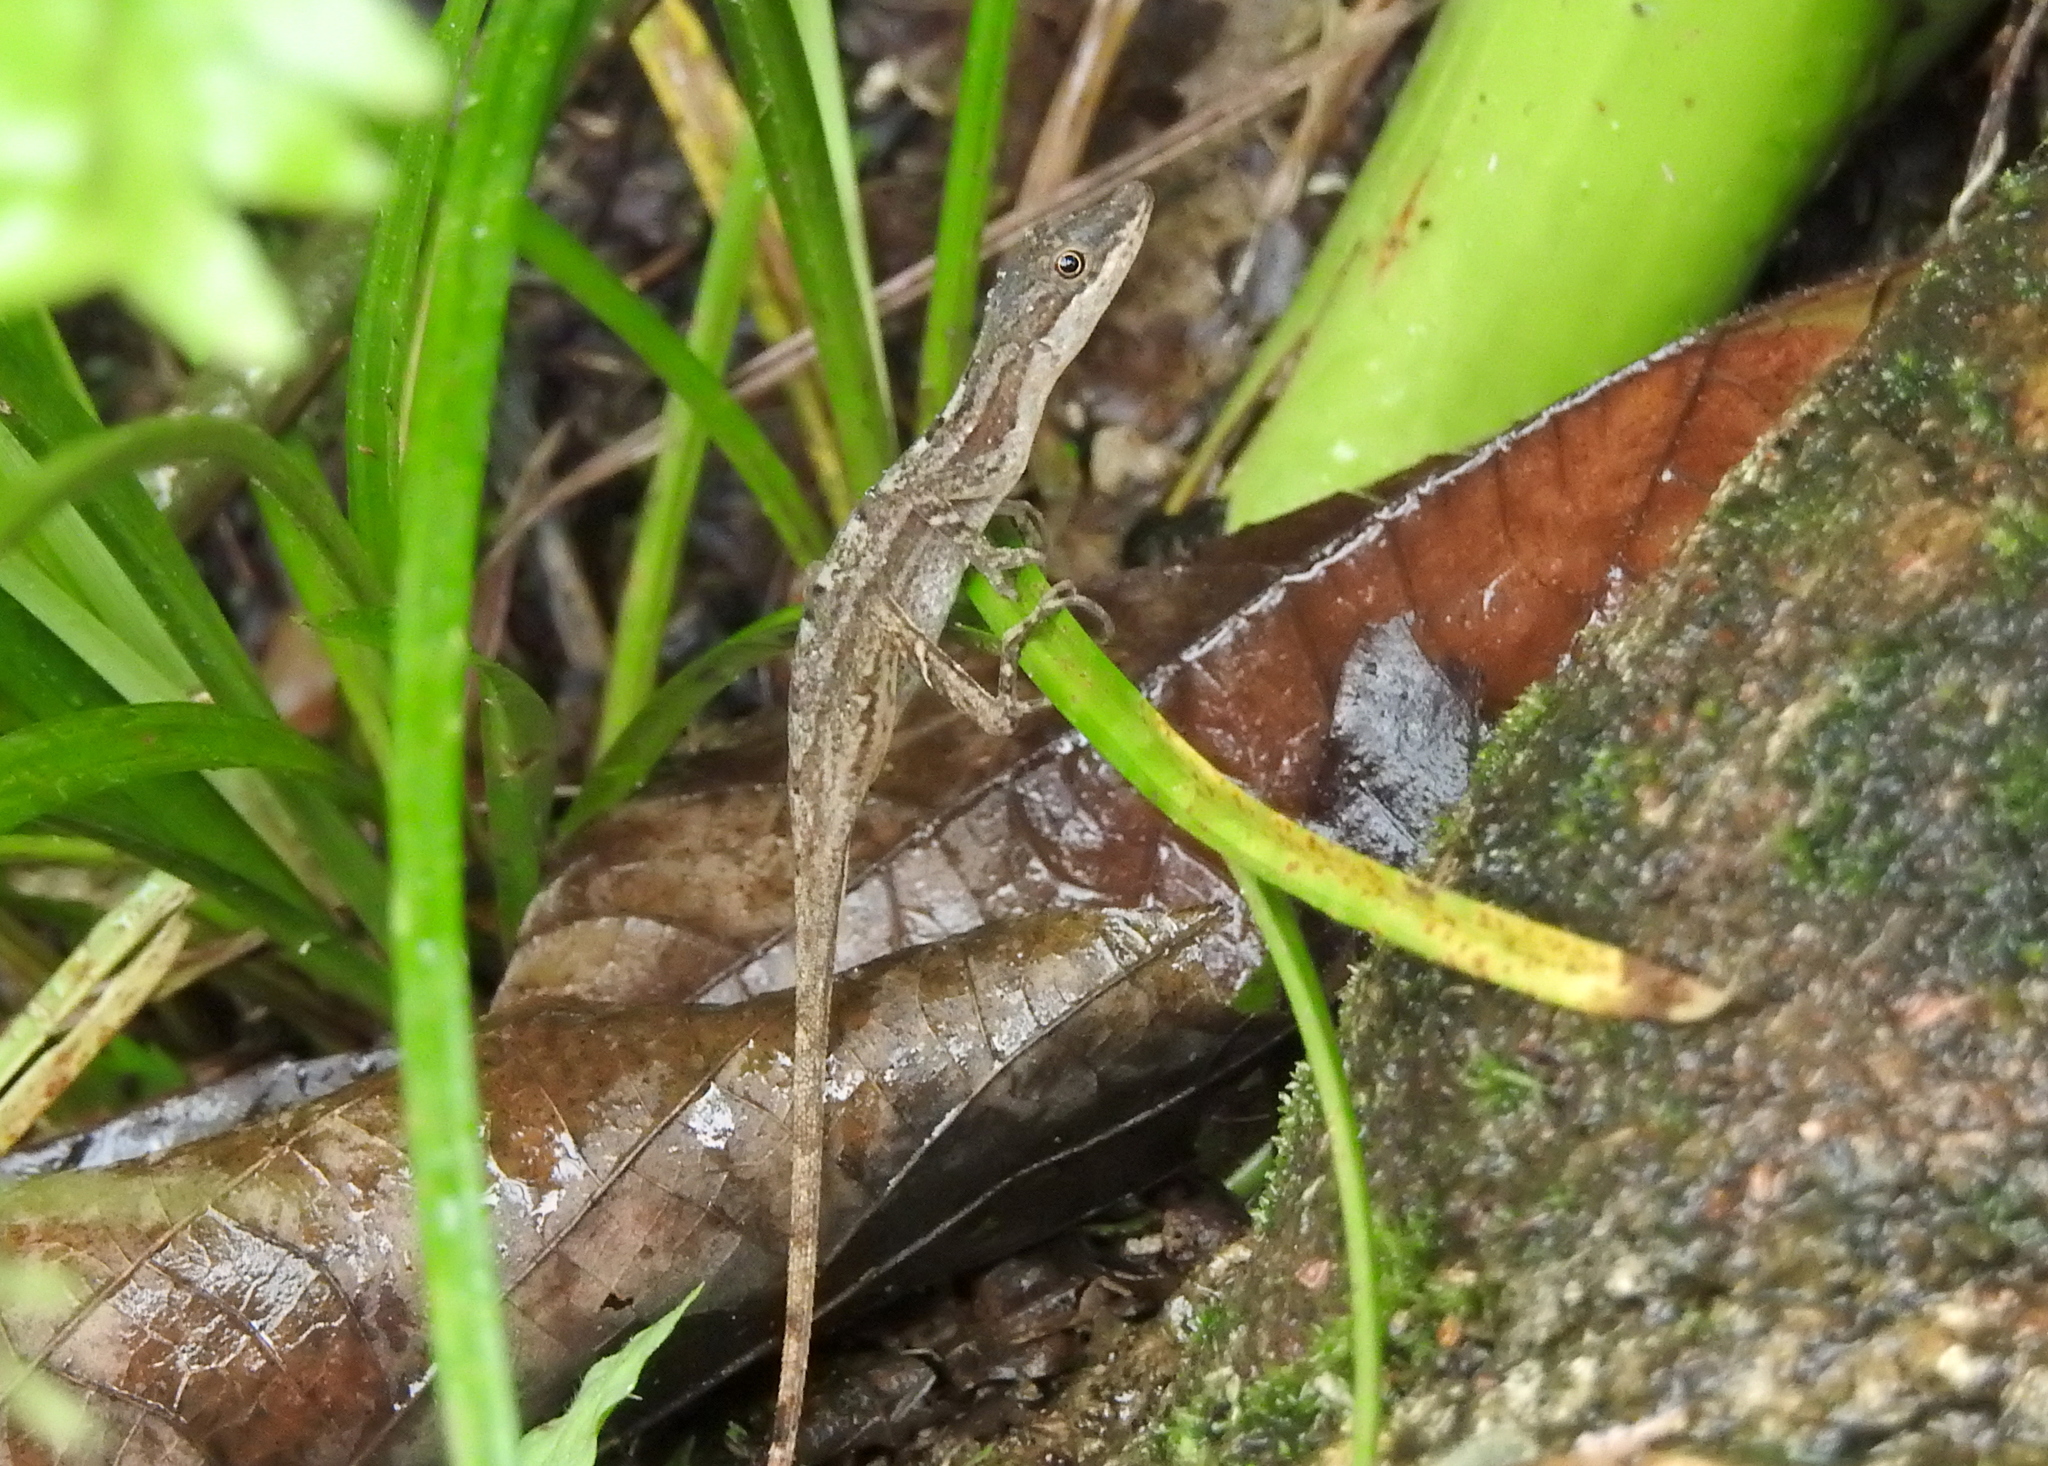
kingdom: Animalia
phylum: Chordata
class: Squamata
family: Dactyloidae
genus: Anolis
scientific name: Anolis limifrons
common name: Border anole
